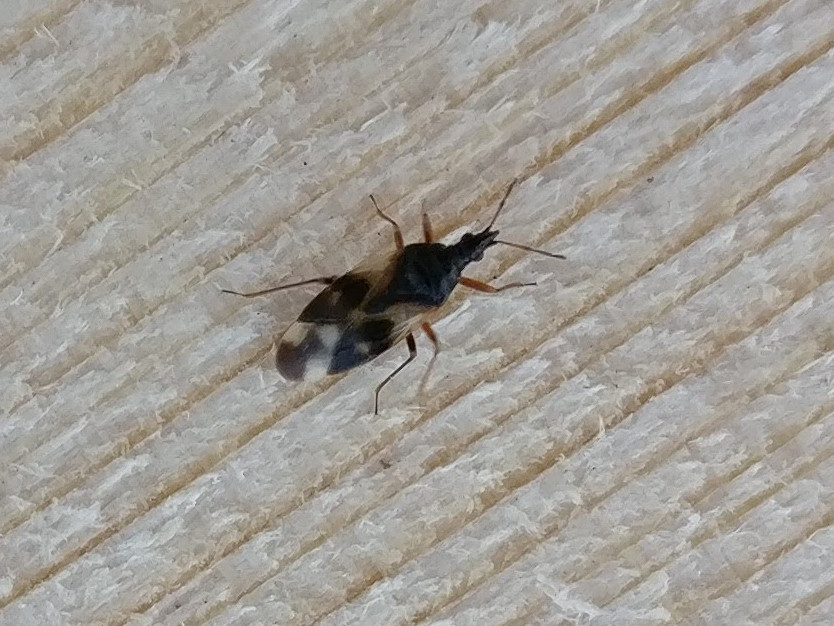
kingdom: Animalia
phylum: Arthropoda
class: Insecta
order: Hemiptera
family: Anthocoridae
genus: Anthocoris
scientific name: Anthocoris nemorum
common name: Minute pirate bug
